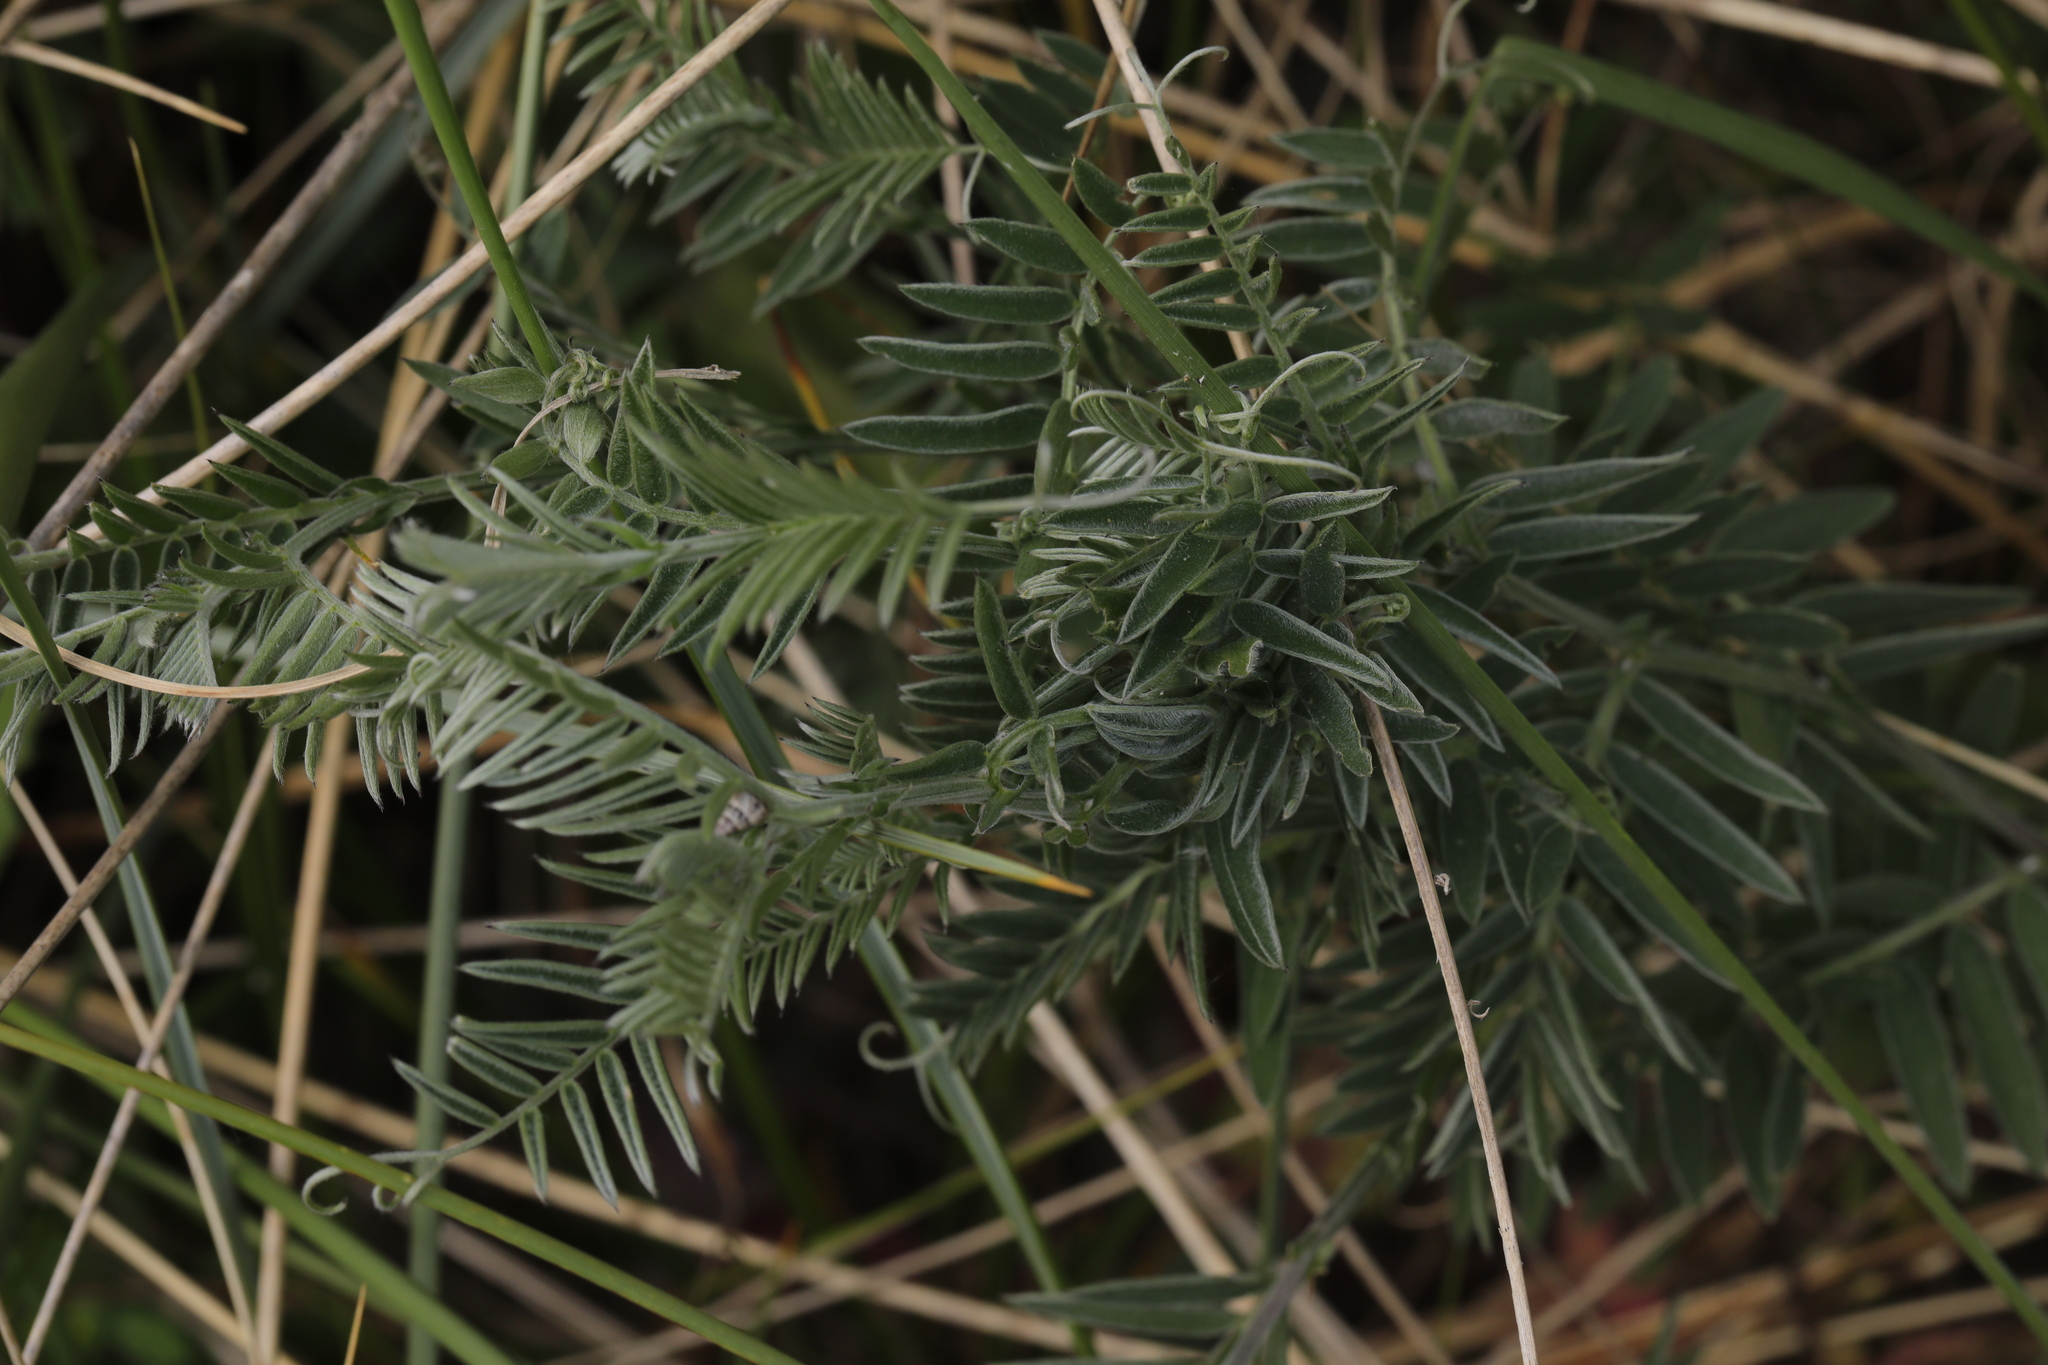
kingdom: Plantae
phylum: Tracheophyta
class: Magnoliopsida
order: Fabales
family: Fabaceae
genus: Vicia
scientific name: Vicia cracca
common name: Bird vetch
